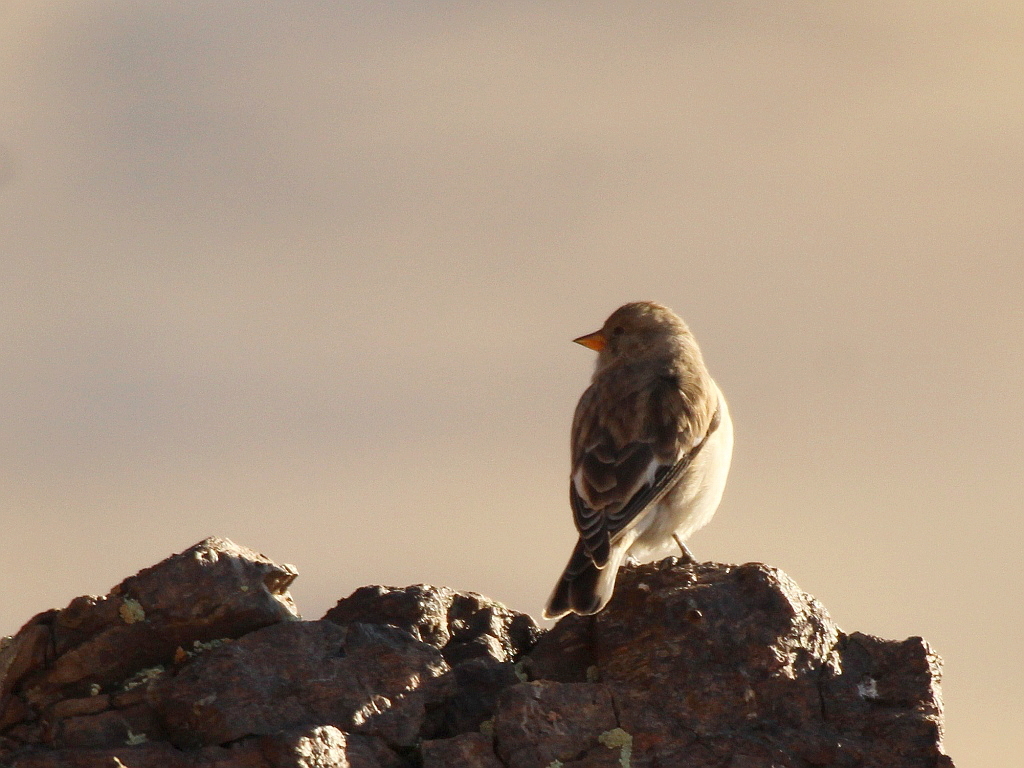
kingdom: Animalia
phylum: Chordata
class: Aves
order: Passeriformes
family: Passeridae
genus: Montifringilla
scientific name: Montifringilla nivalis
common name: White-winged snowfinch
